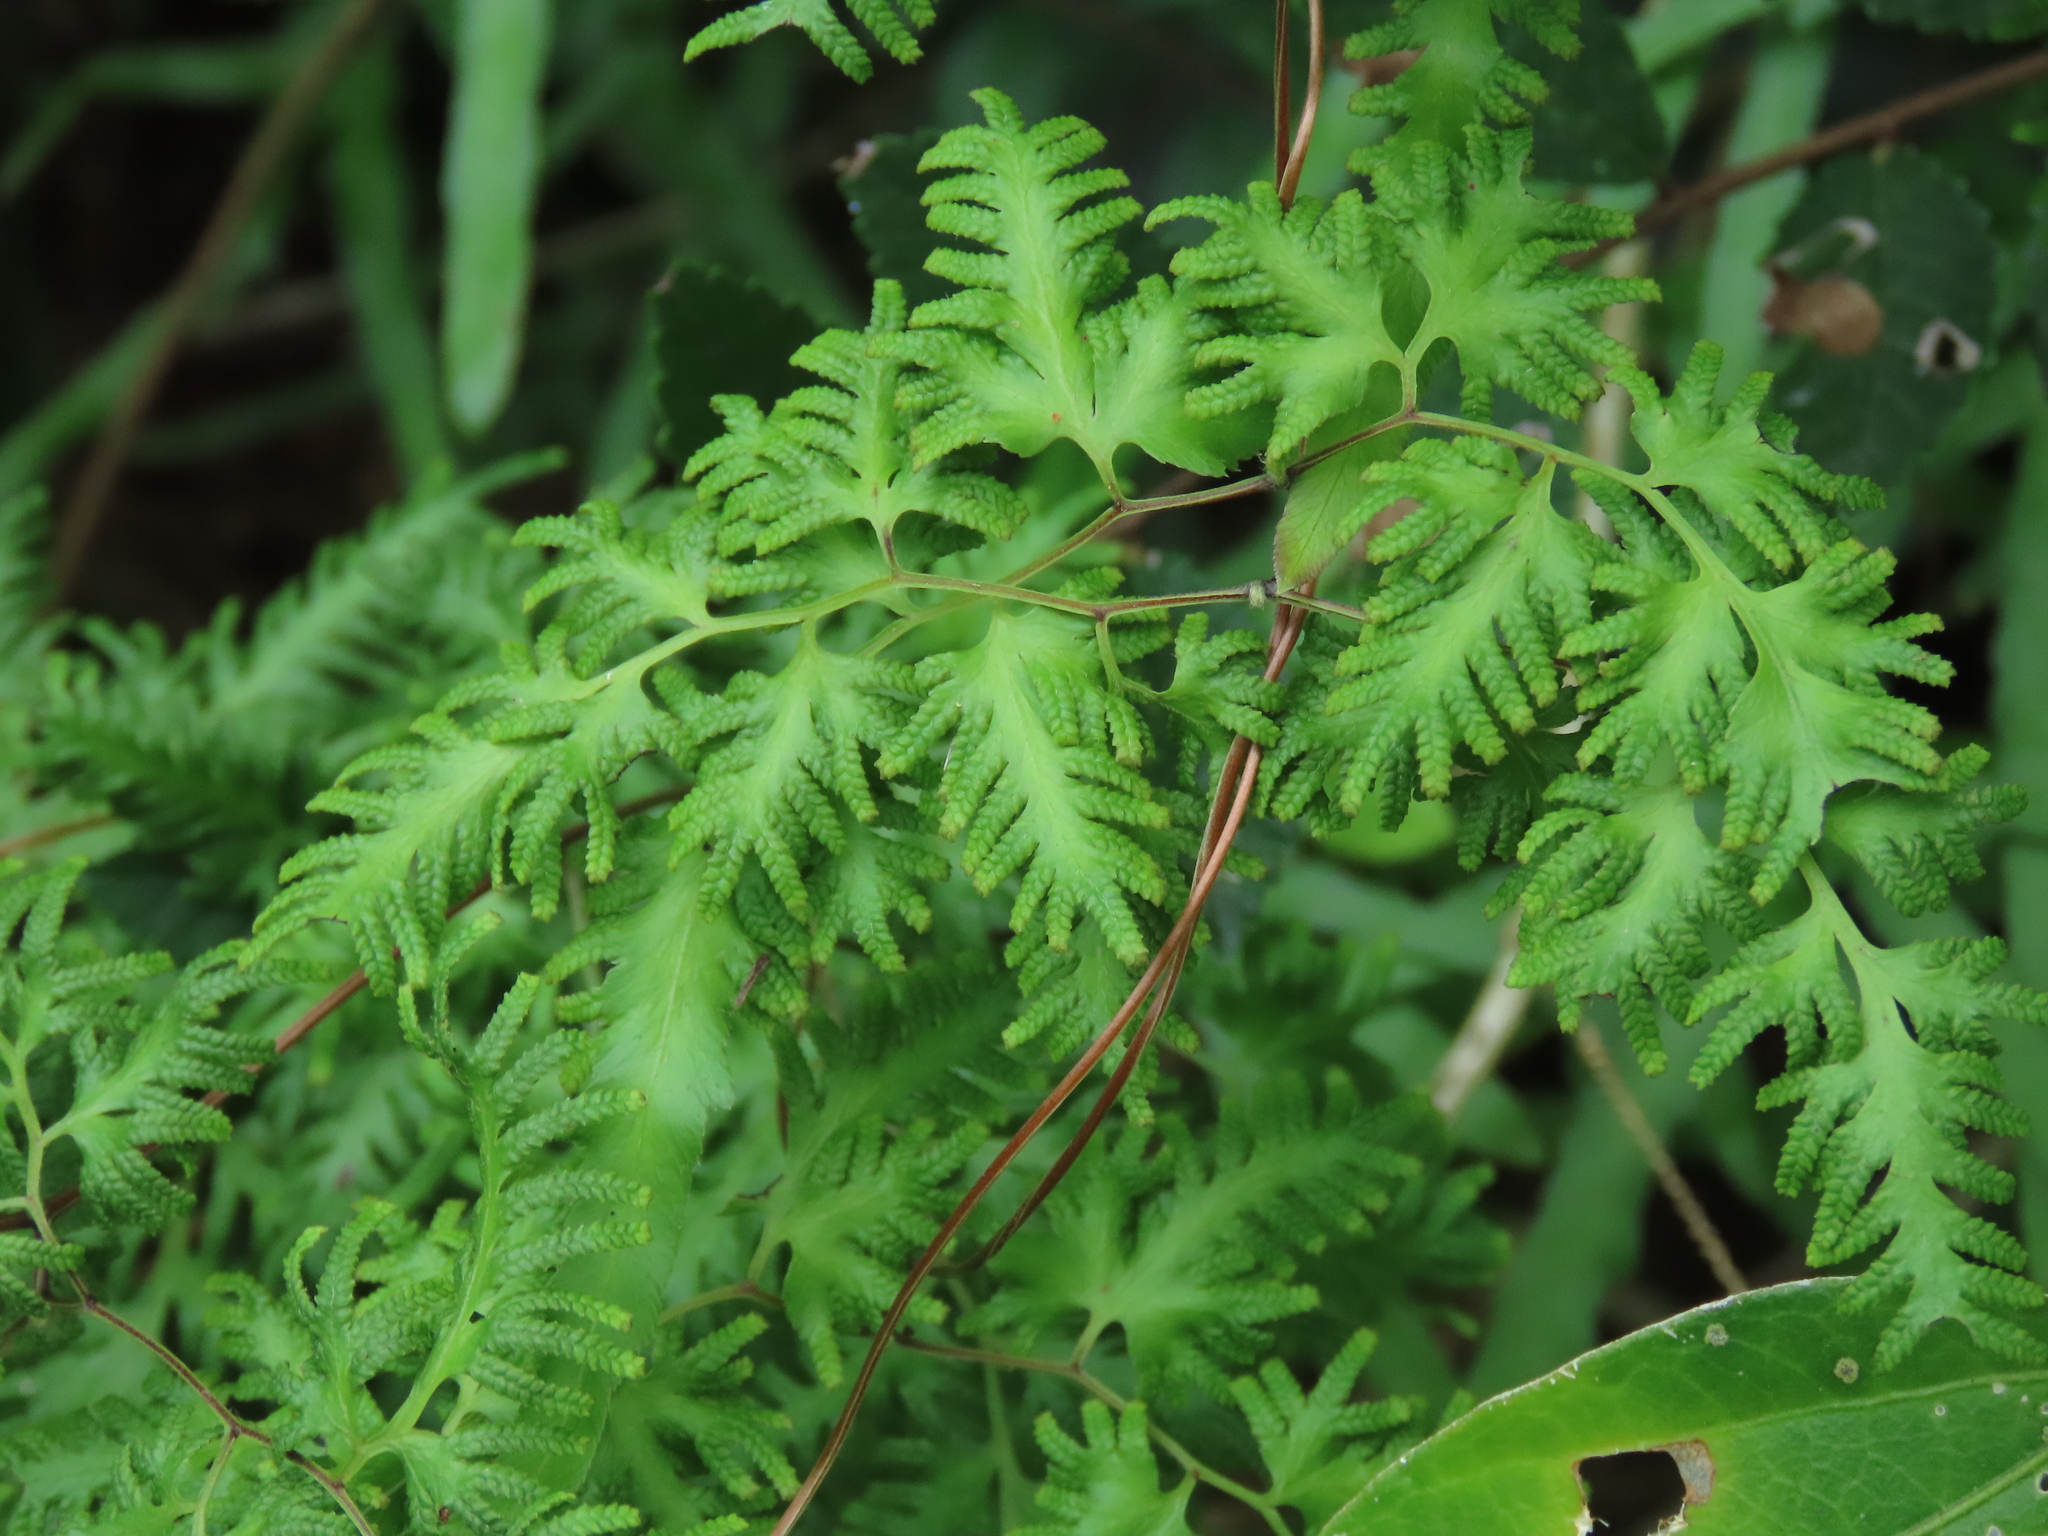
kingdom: Plantae
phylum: Tracheophyta
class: Polypodiopsida
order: Schizaeales
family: Lygodiaceae
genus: Lygodium
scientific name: Lygodium japonicum
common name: Japanese climbing fern
